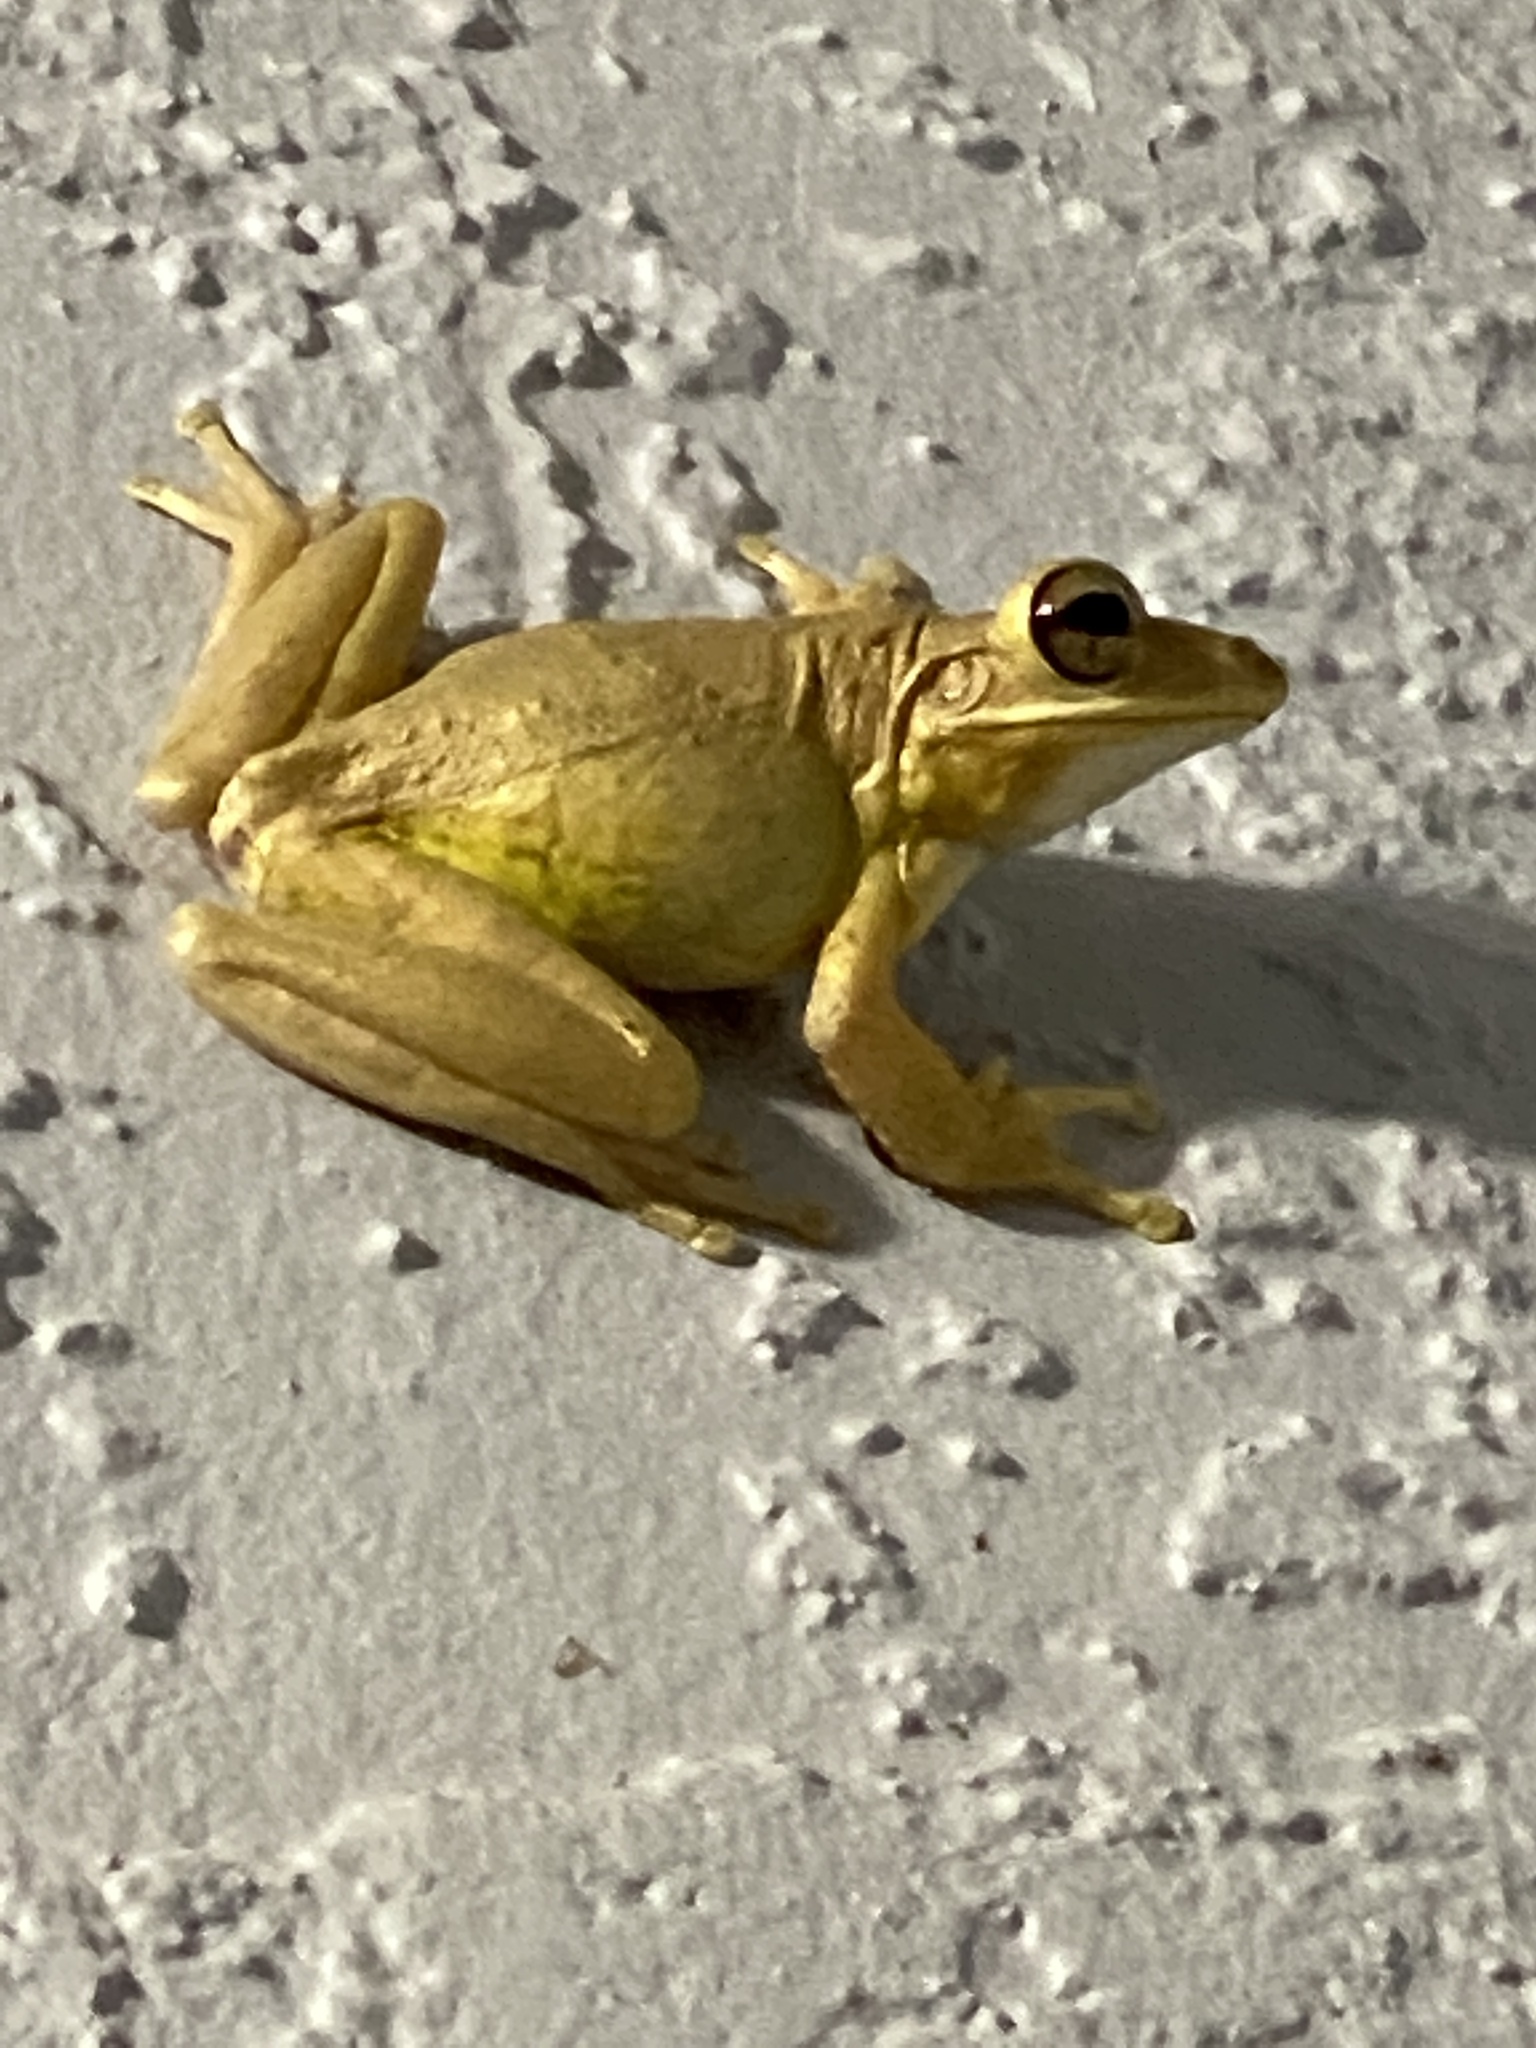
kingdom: Animalia
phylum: Chordata
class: Amphibia
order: Anura
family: Hylidae
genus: Osteopilus
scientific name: Osteopilus septentrionalis
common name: Cuban treefrog
